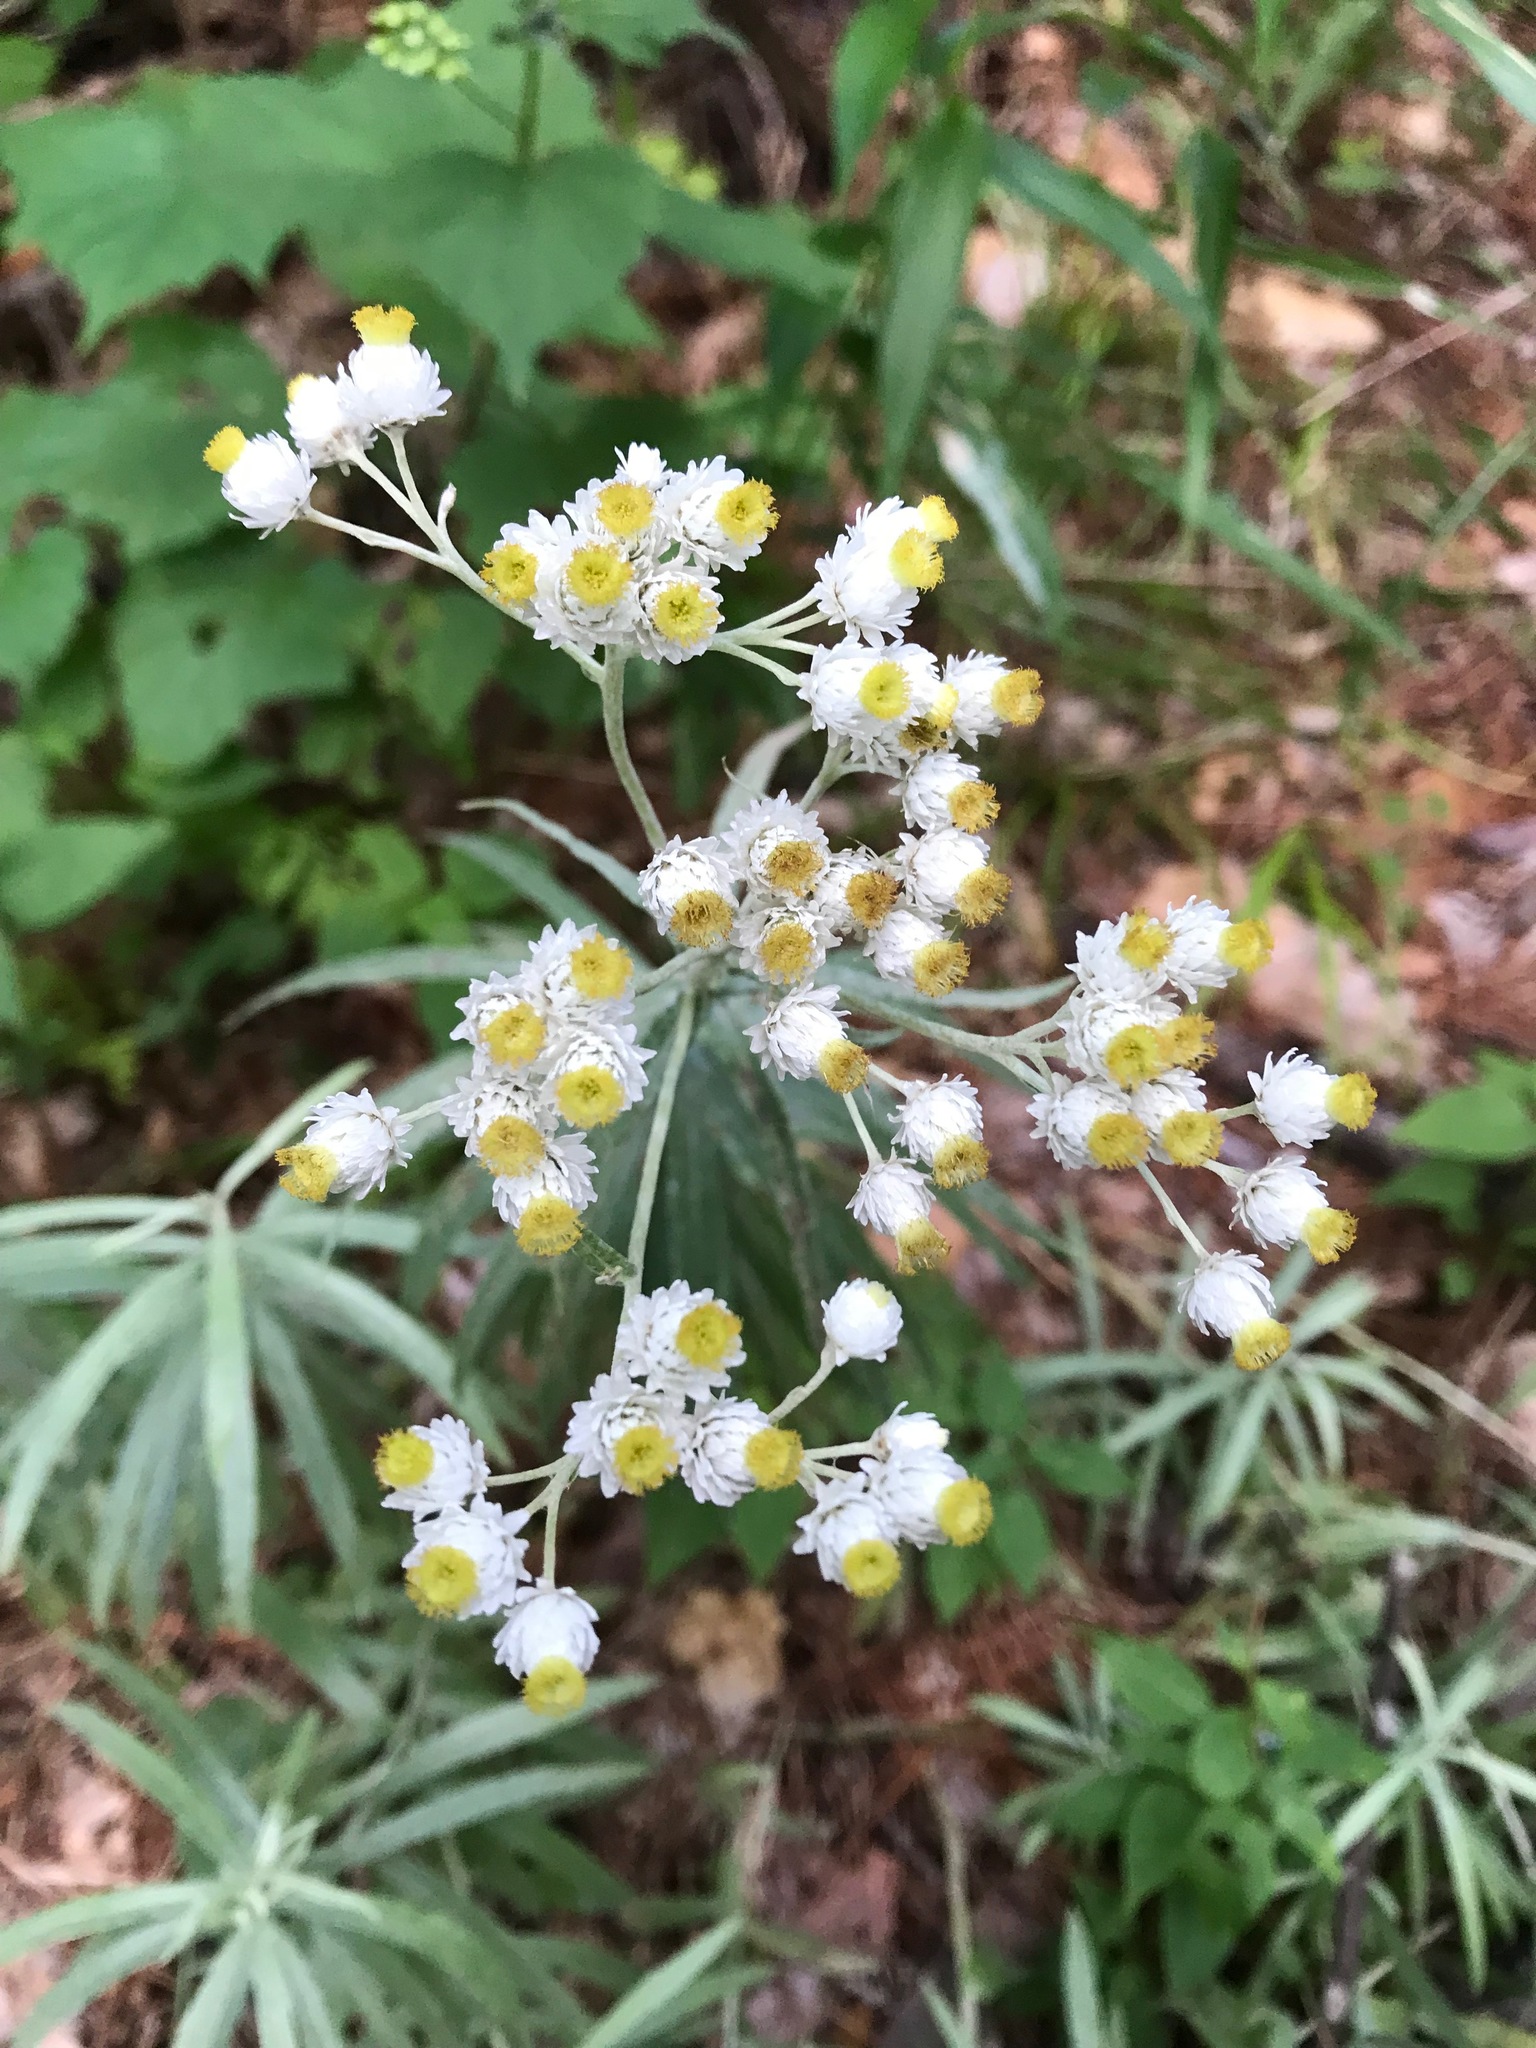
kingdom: Plantae
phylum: Tracheophyta
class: Magnoliopsida
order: Asterales
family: Asteraceae
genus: Anaphalis
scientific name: Anaphalis margaritacea
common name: Pearly everlasting
